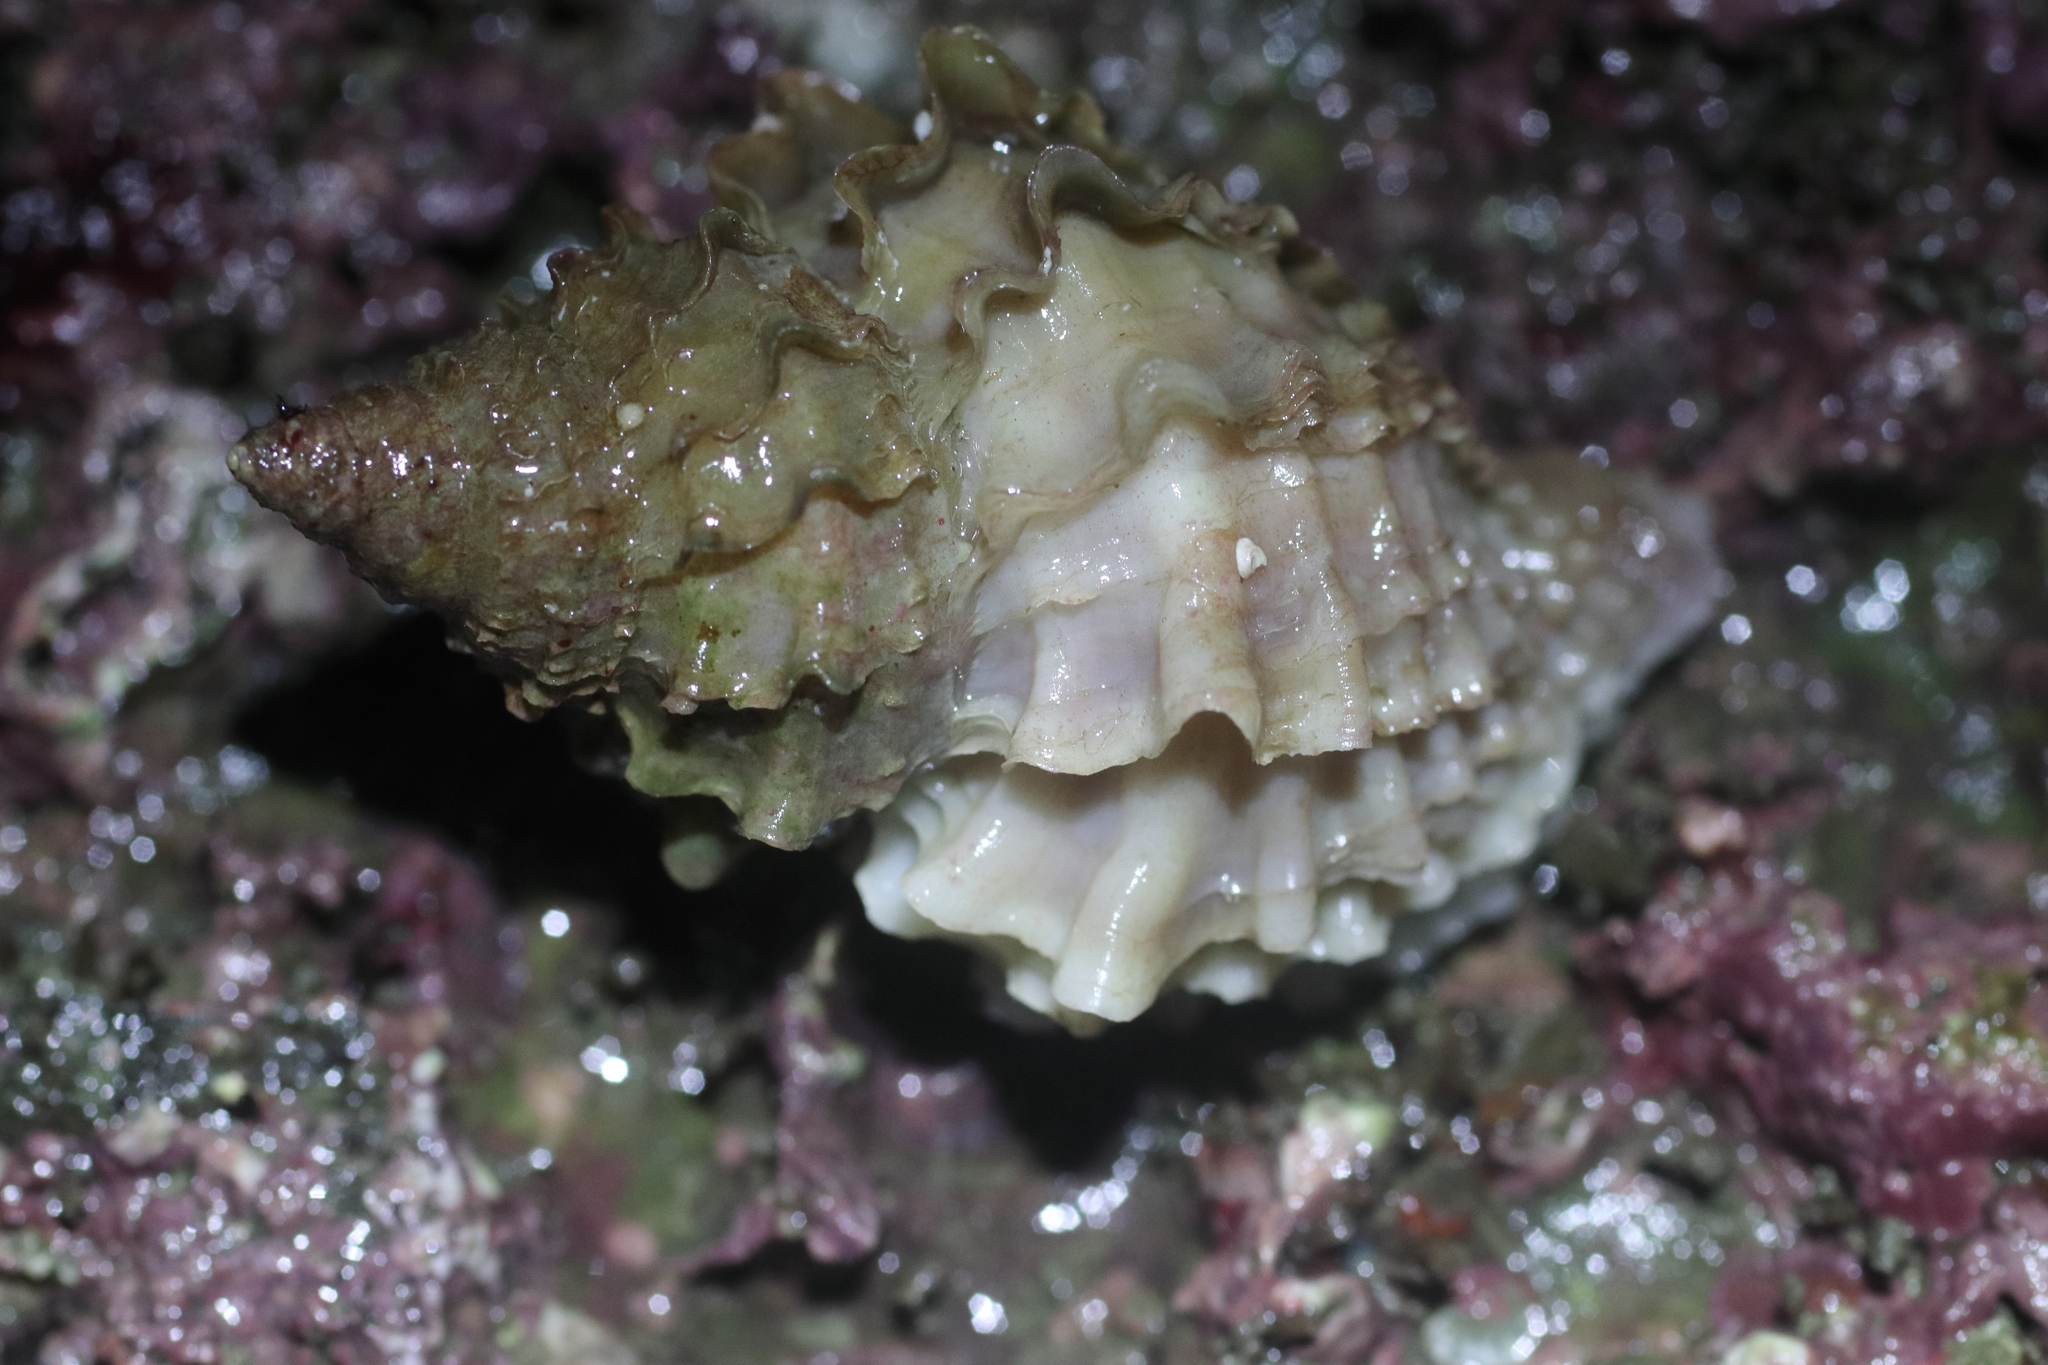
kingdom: Animalia
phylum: Mollusca
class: Gastropoda
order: Neogastropoda
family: Muricidae
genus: Nucella
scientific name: Nucella lamellosa
